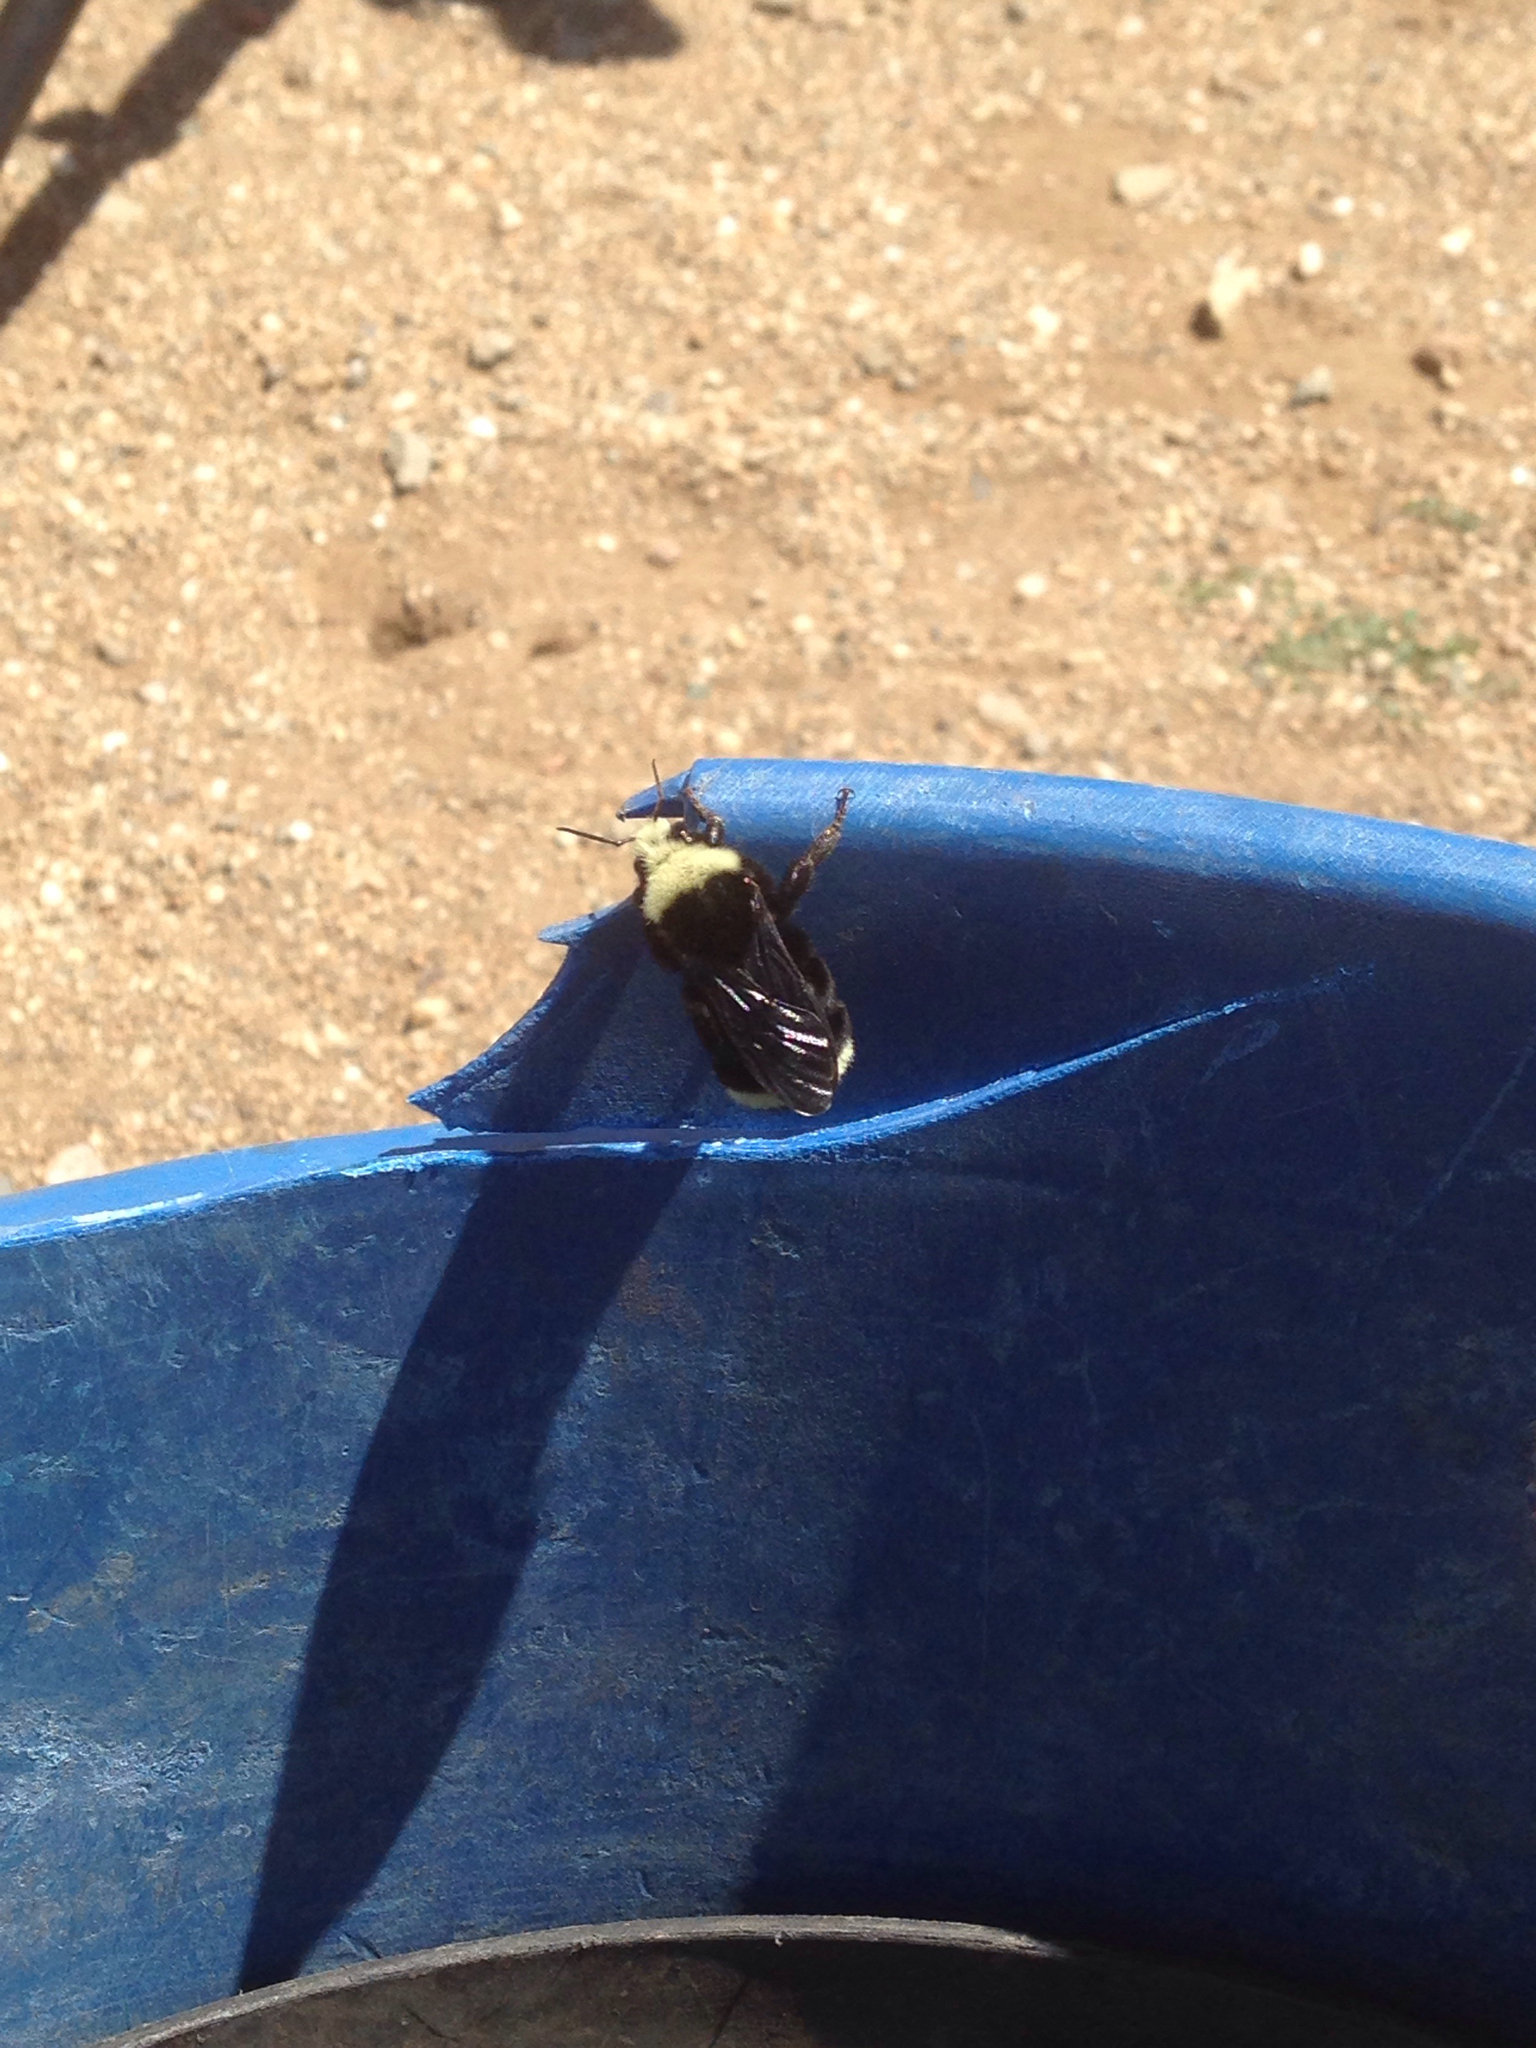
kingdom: Animalia
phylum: Arthropoda
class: Insecta
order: Hymenoptera
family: Apidae
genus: Bombus
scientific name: Bombus vosnesenskii
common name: Vosnesensky bumble bee
